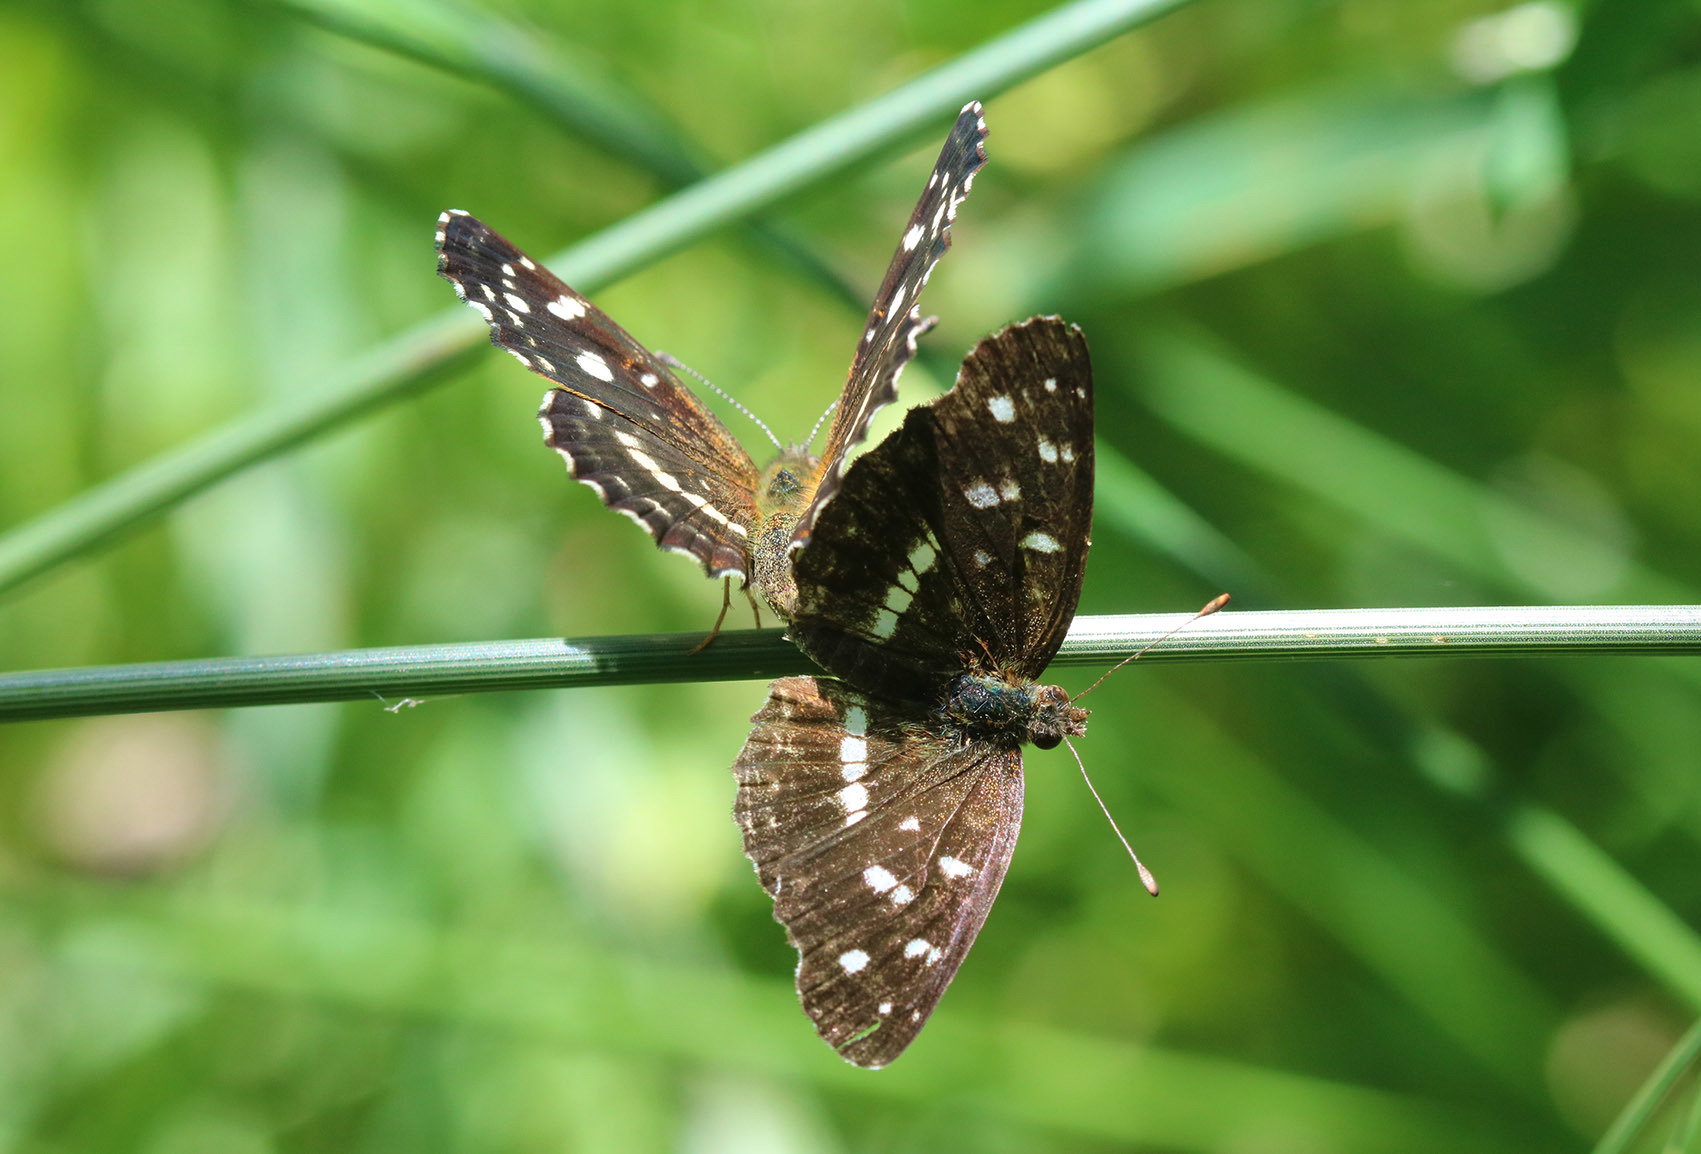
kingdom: Animalia
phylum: Arthropoda
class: Insecta
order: Lepidoptera
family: Nymphalidae
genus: Ortilia
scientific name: Ortilia ithra
